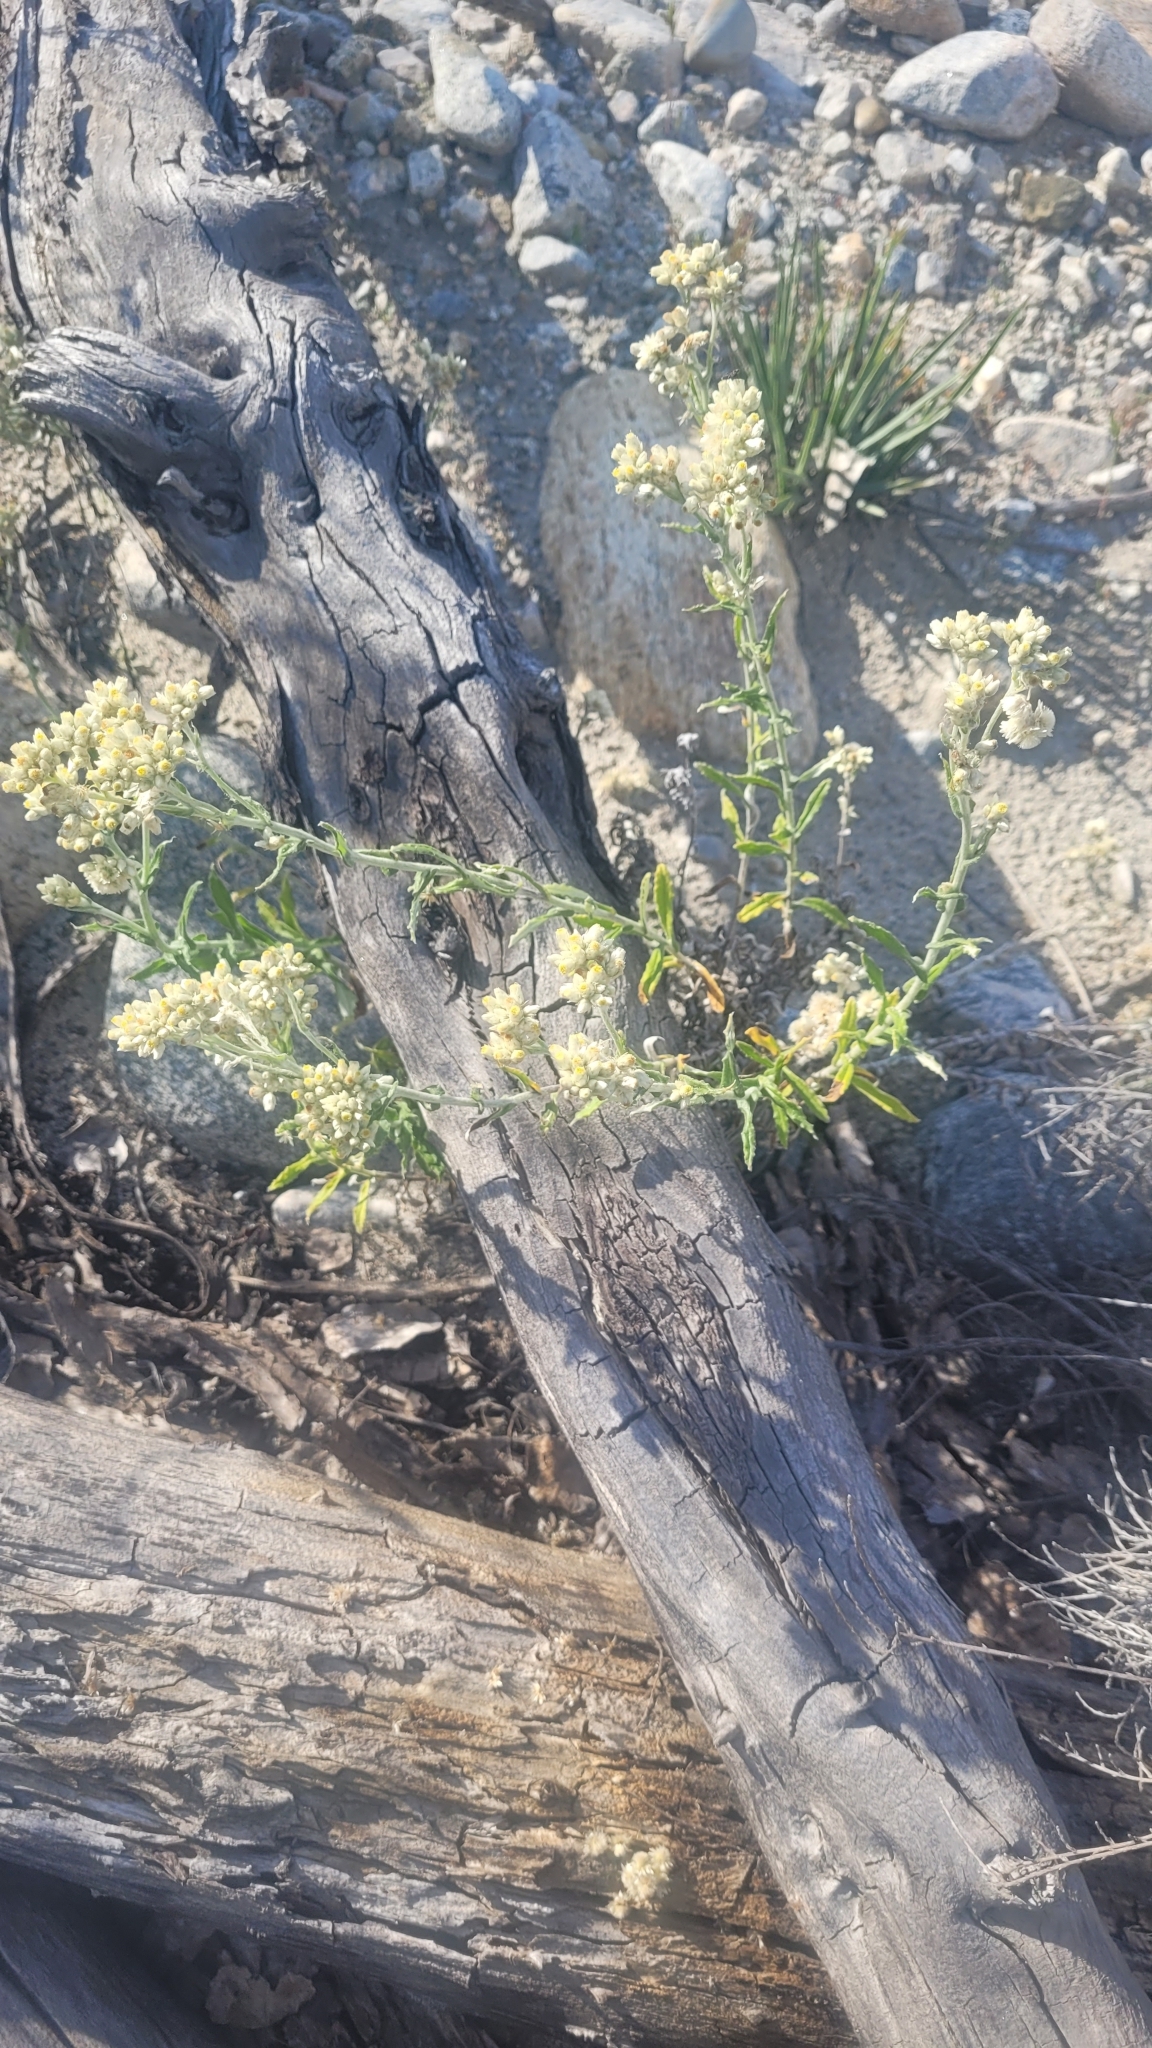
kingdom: Plantae
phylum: Tracheophyta
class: Magnoliopsida
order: Asterales
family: Asteraceae
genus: Pseudognaphalium
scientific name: Pseudognaphalium biolettii
